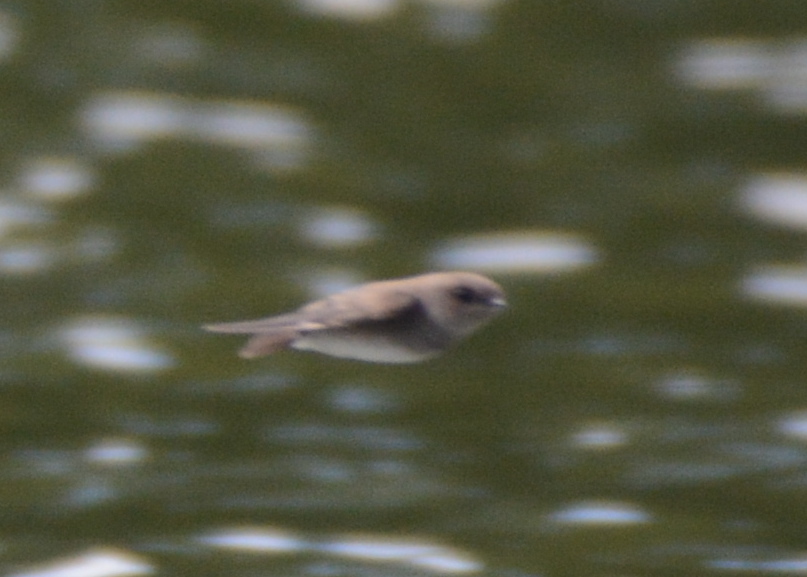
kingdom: Animalia
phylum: Chordata
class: Aves
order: Passeriformes
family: Hirundinidae
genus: Stelgidopteryx
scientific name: Stelgidopteryx serripennis
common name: Northern rough-winged swallow
